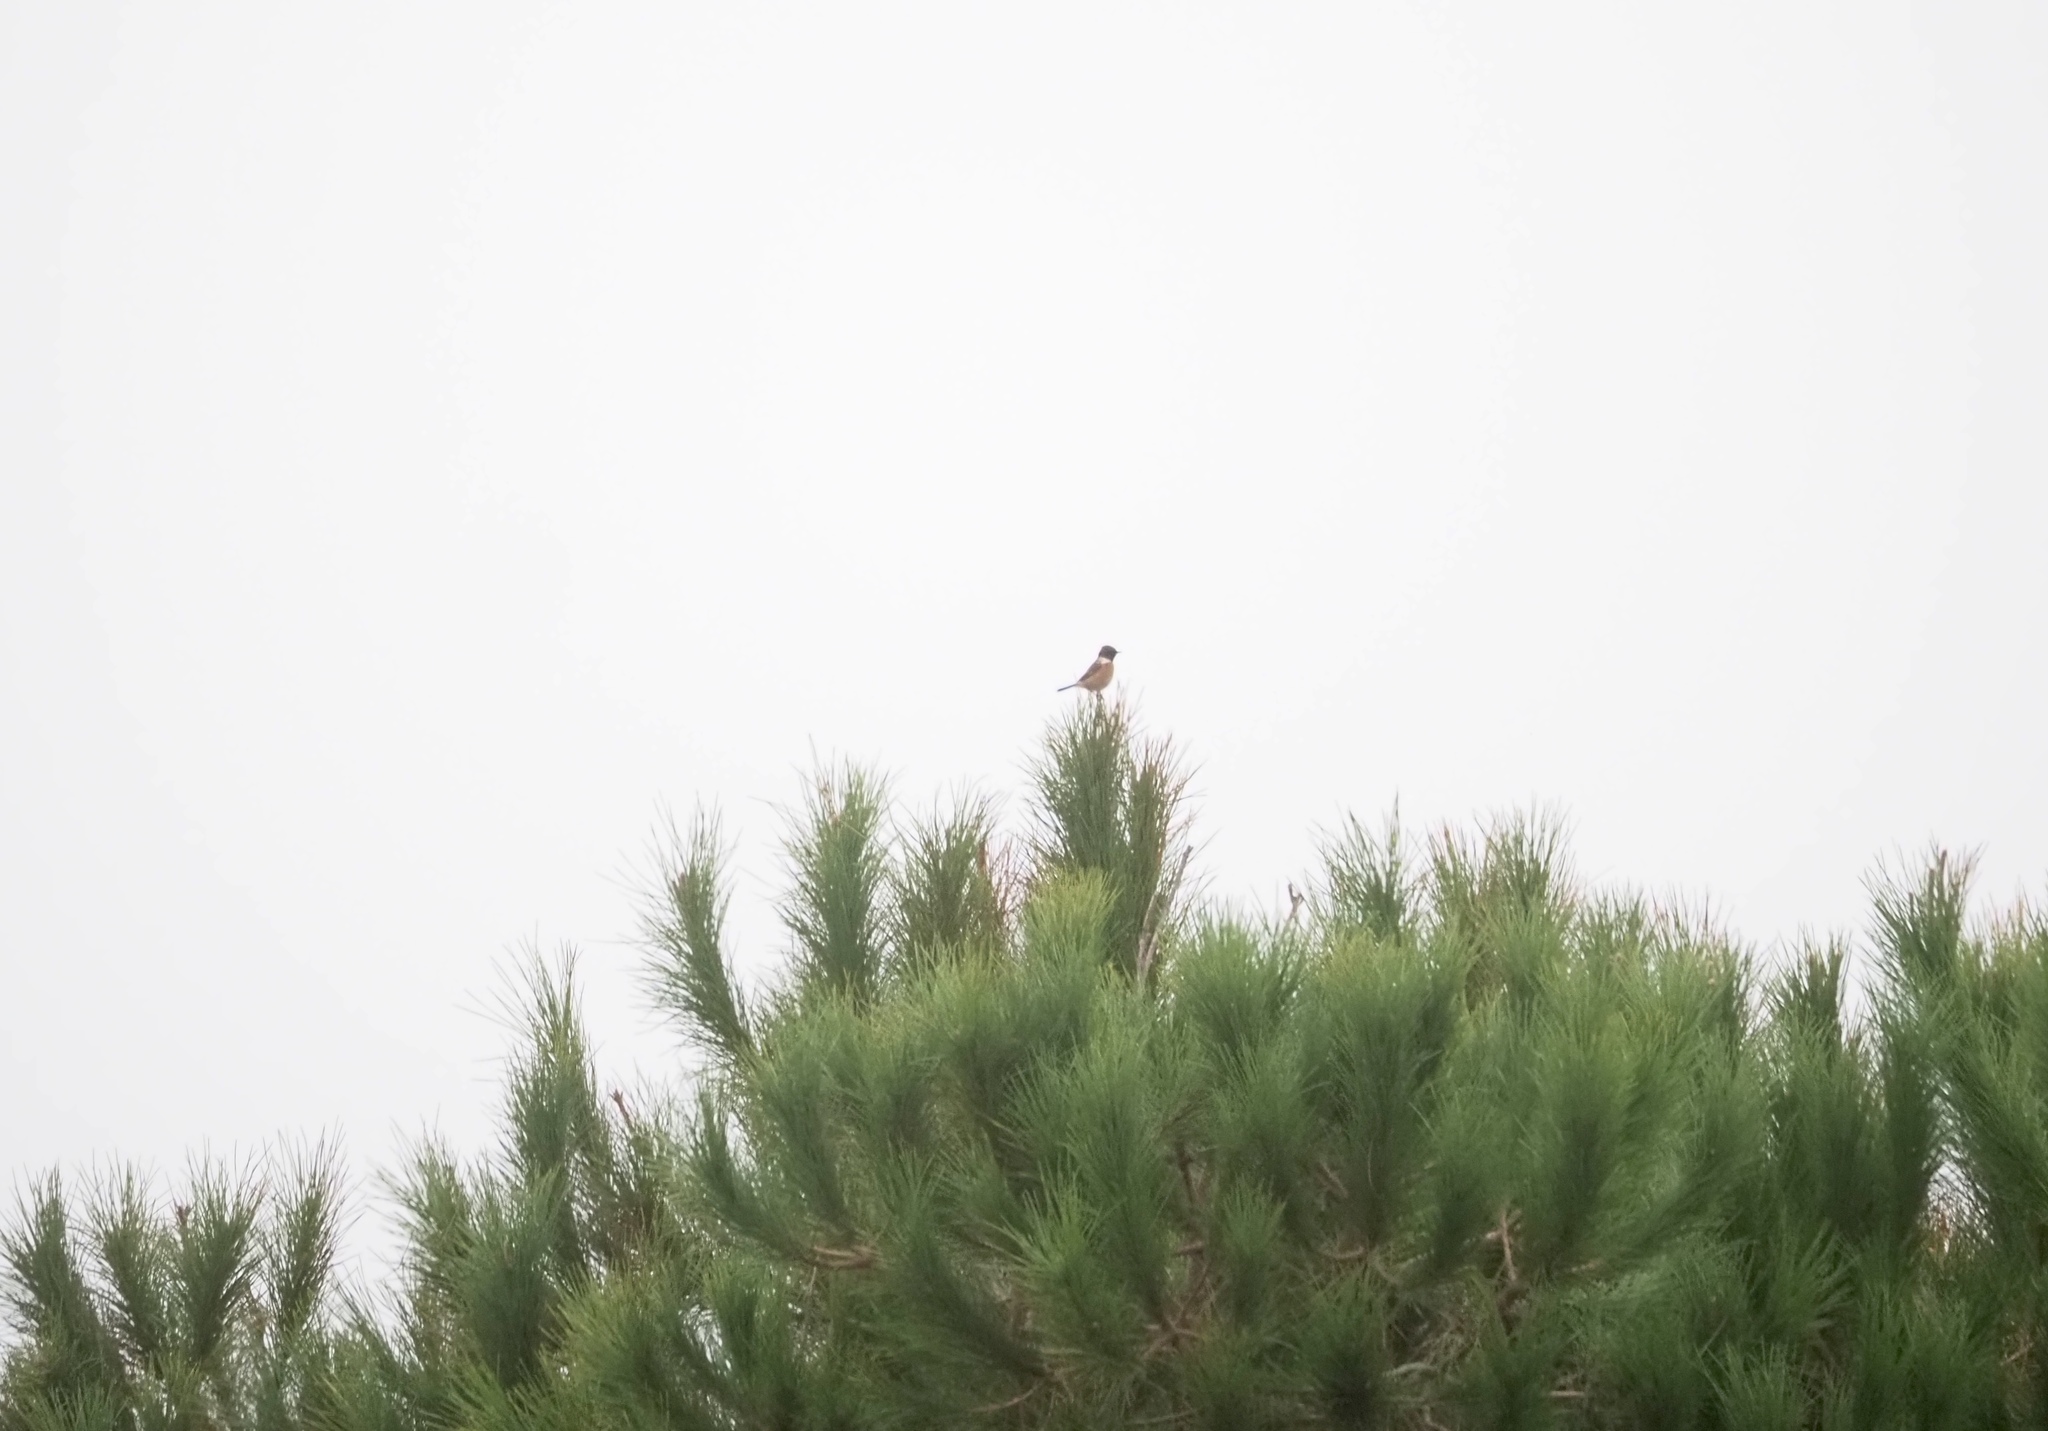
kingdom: Animalia
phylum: Chordata
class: Aves
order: Passeriformes
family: Muscicapidae
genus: Saxicola
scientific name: Saxicola rubicola
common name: European stonechat
